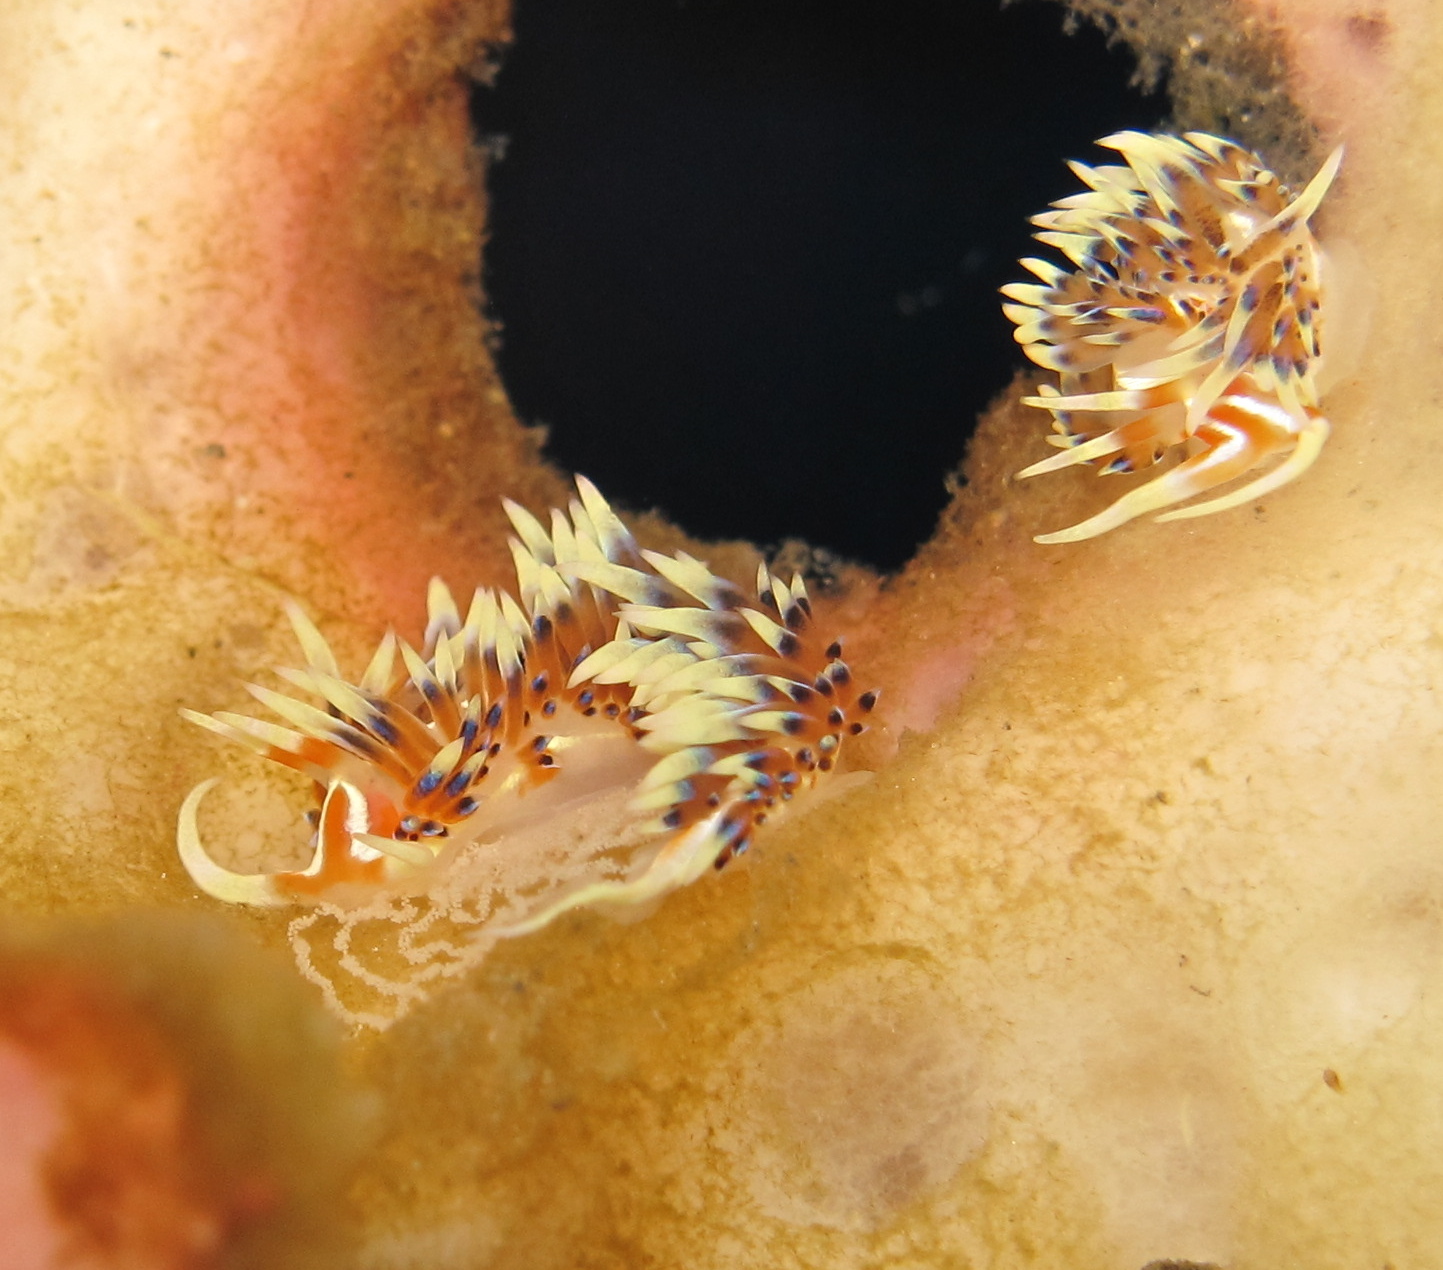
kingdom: Animalia
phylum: Mollusca
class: Gastropoda
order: Nudibranchia
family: Facelinidae
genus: Caloria
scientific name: Caloria indica
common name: Sea slug
